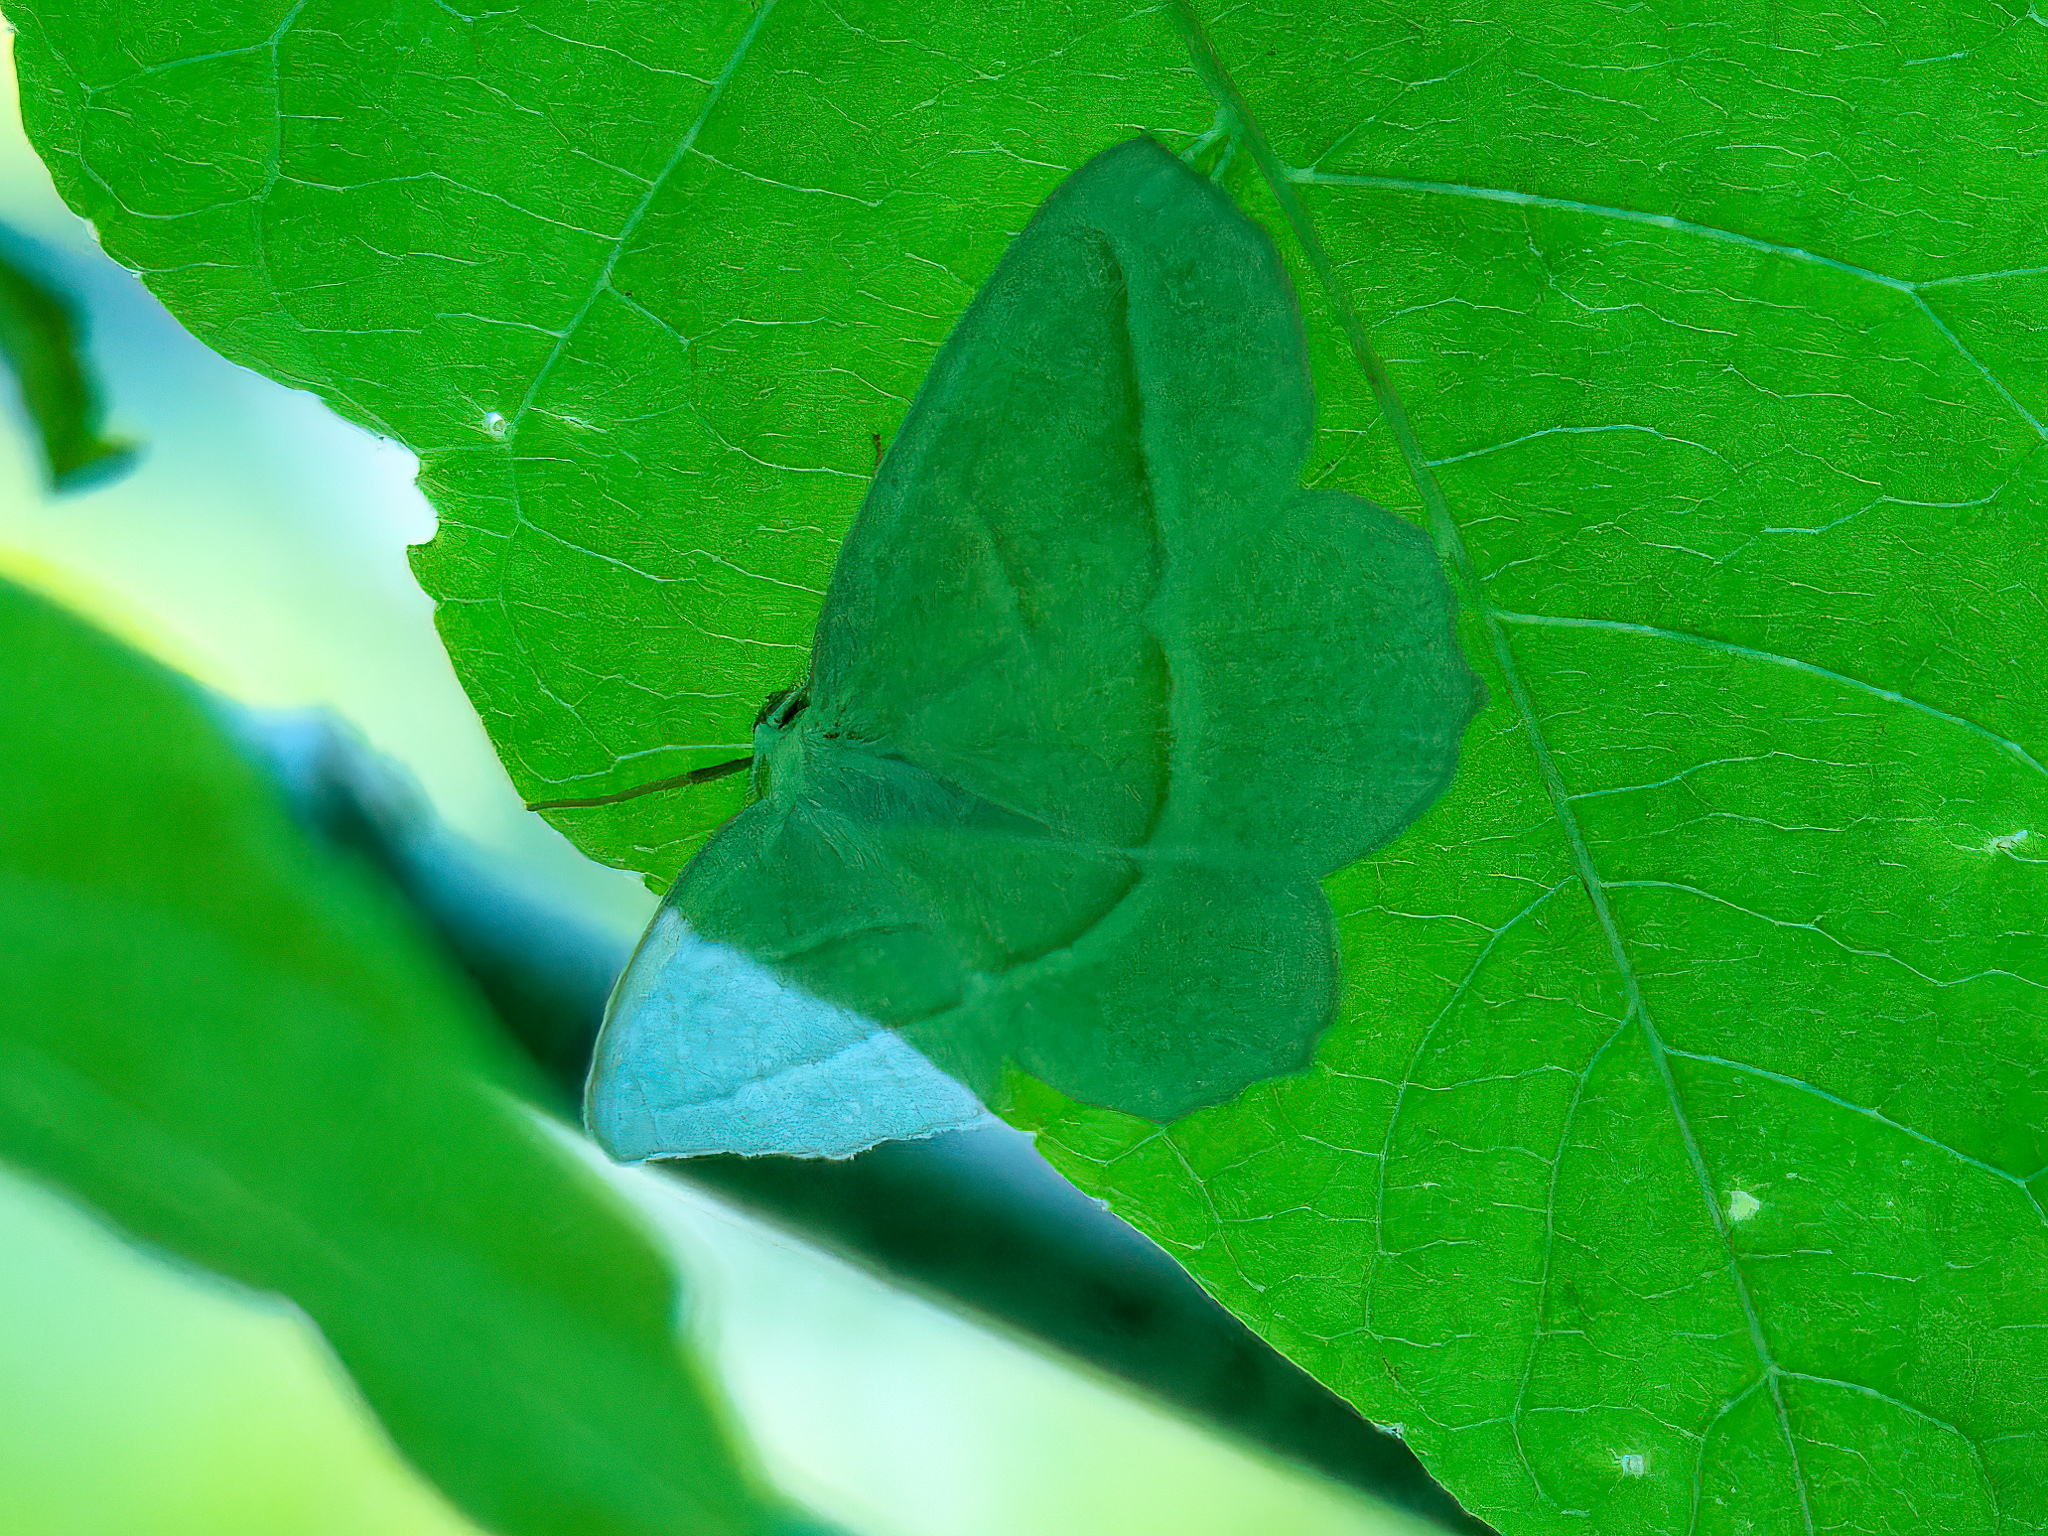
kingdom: Animalia
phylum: Arthropoda
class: Insecta
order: Lepidoptera
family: Geometridae
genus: Campaea
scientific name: Campaea perlata
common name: Fringed looper
